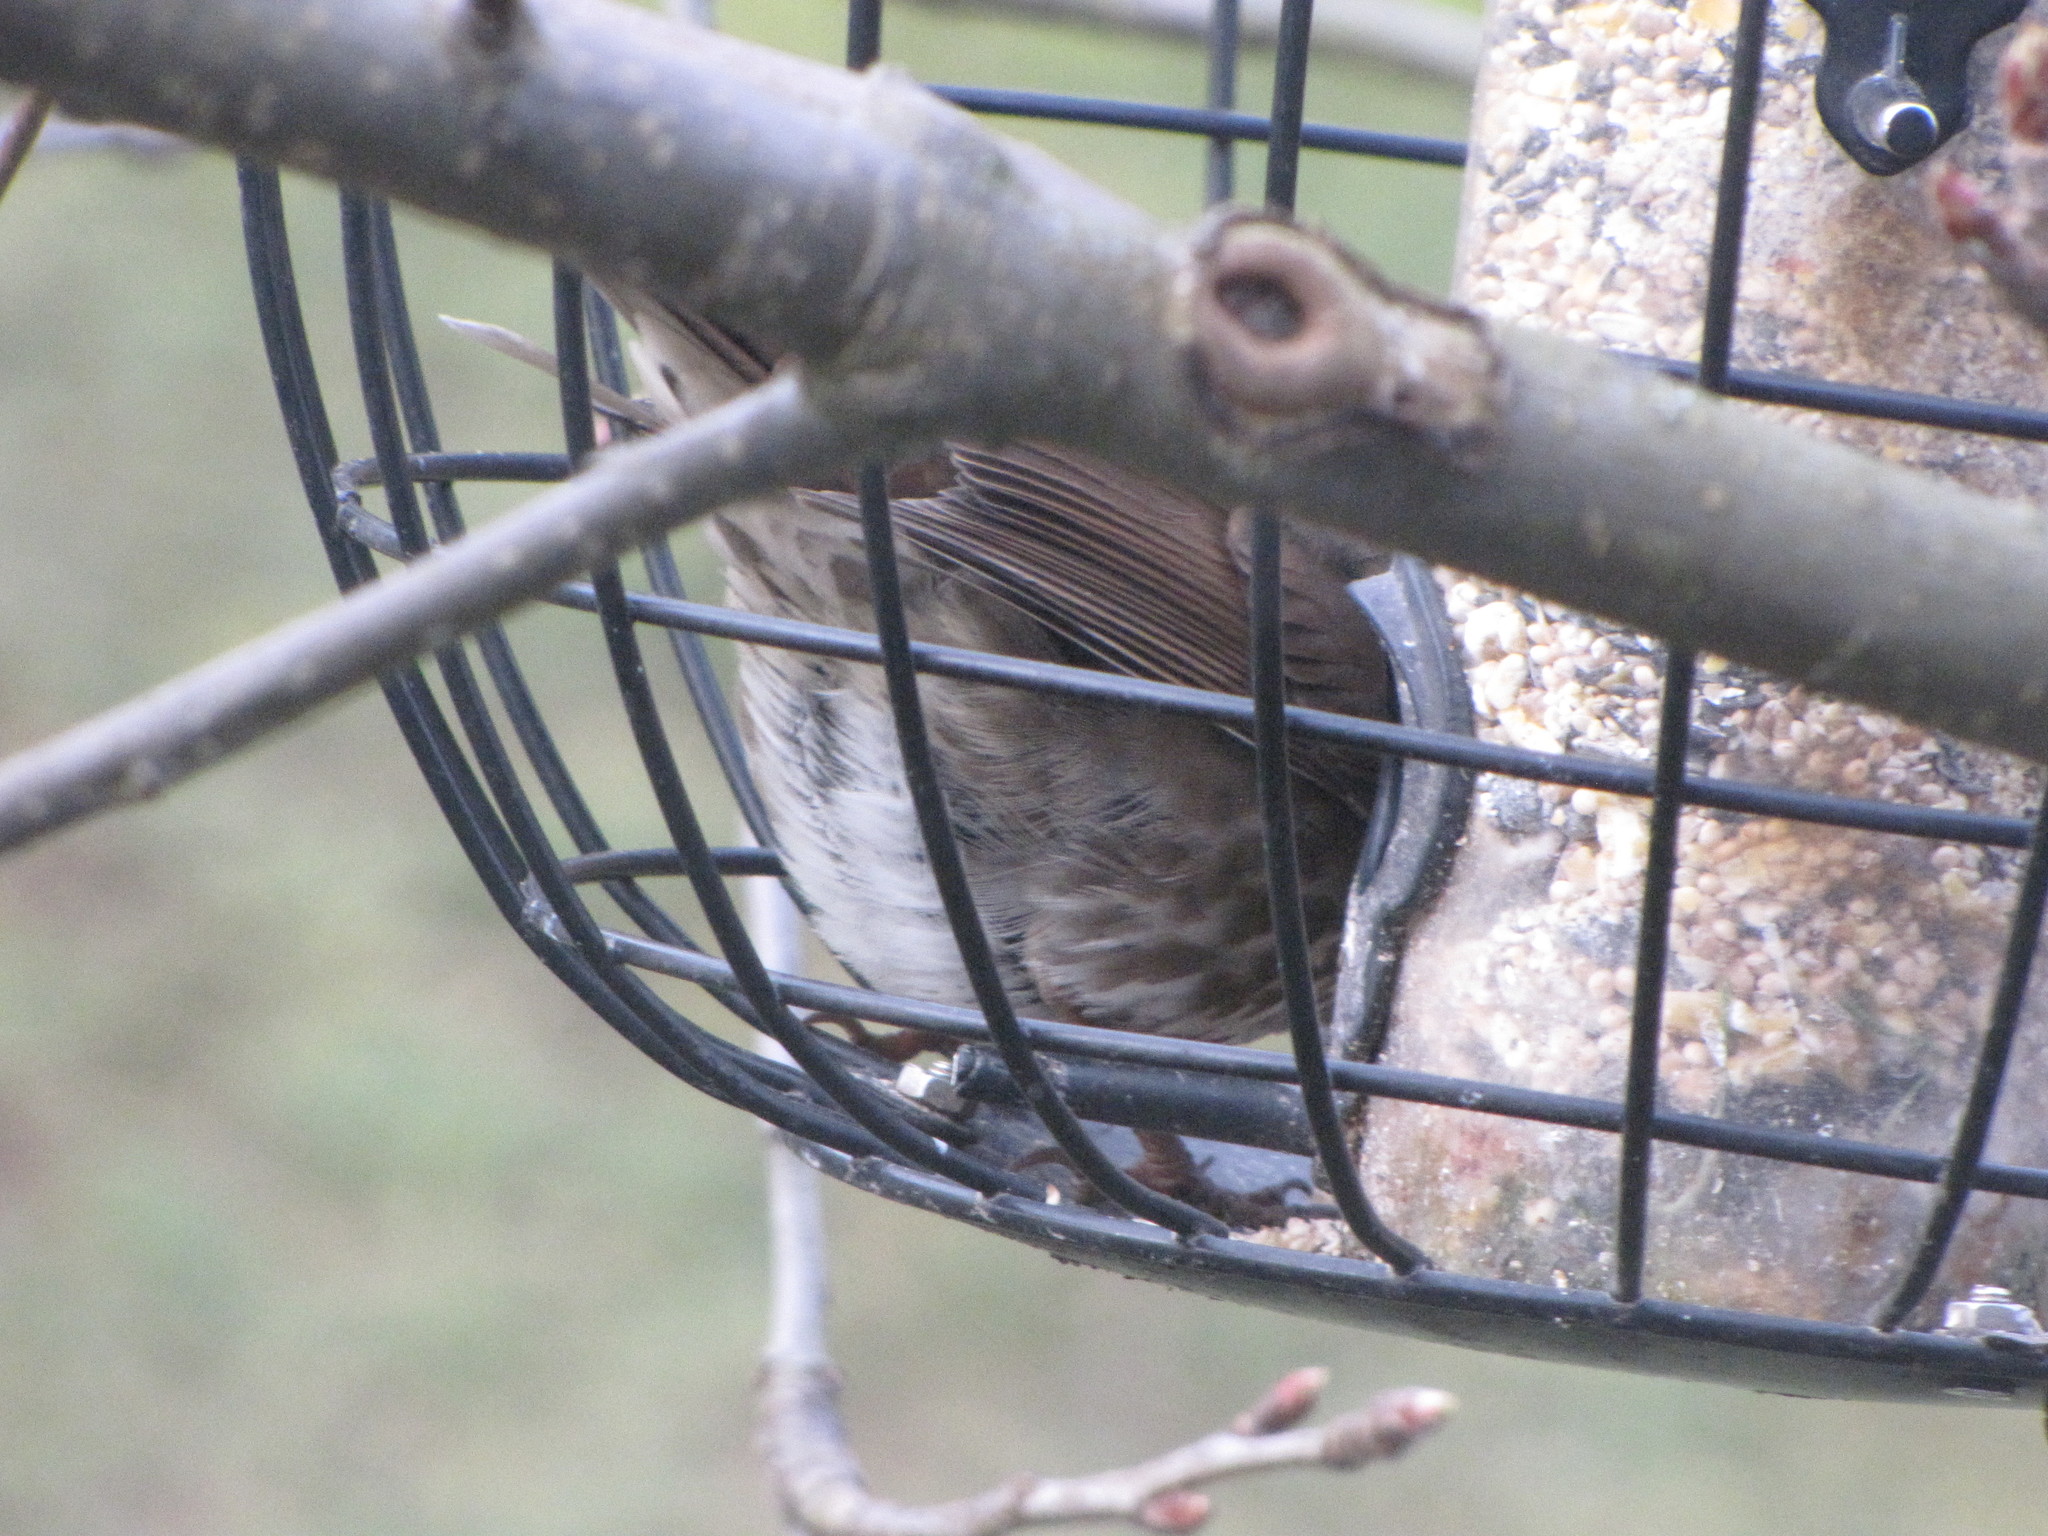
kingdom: Animalia
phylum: Chordata
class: Aves
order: Passeriformes
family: Passerellidae
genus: Passerella
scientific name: Passerella iliaca
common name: Fox sparrow
